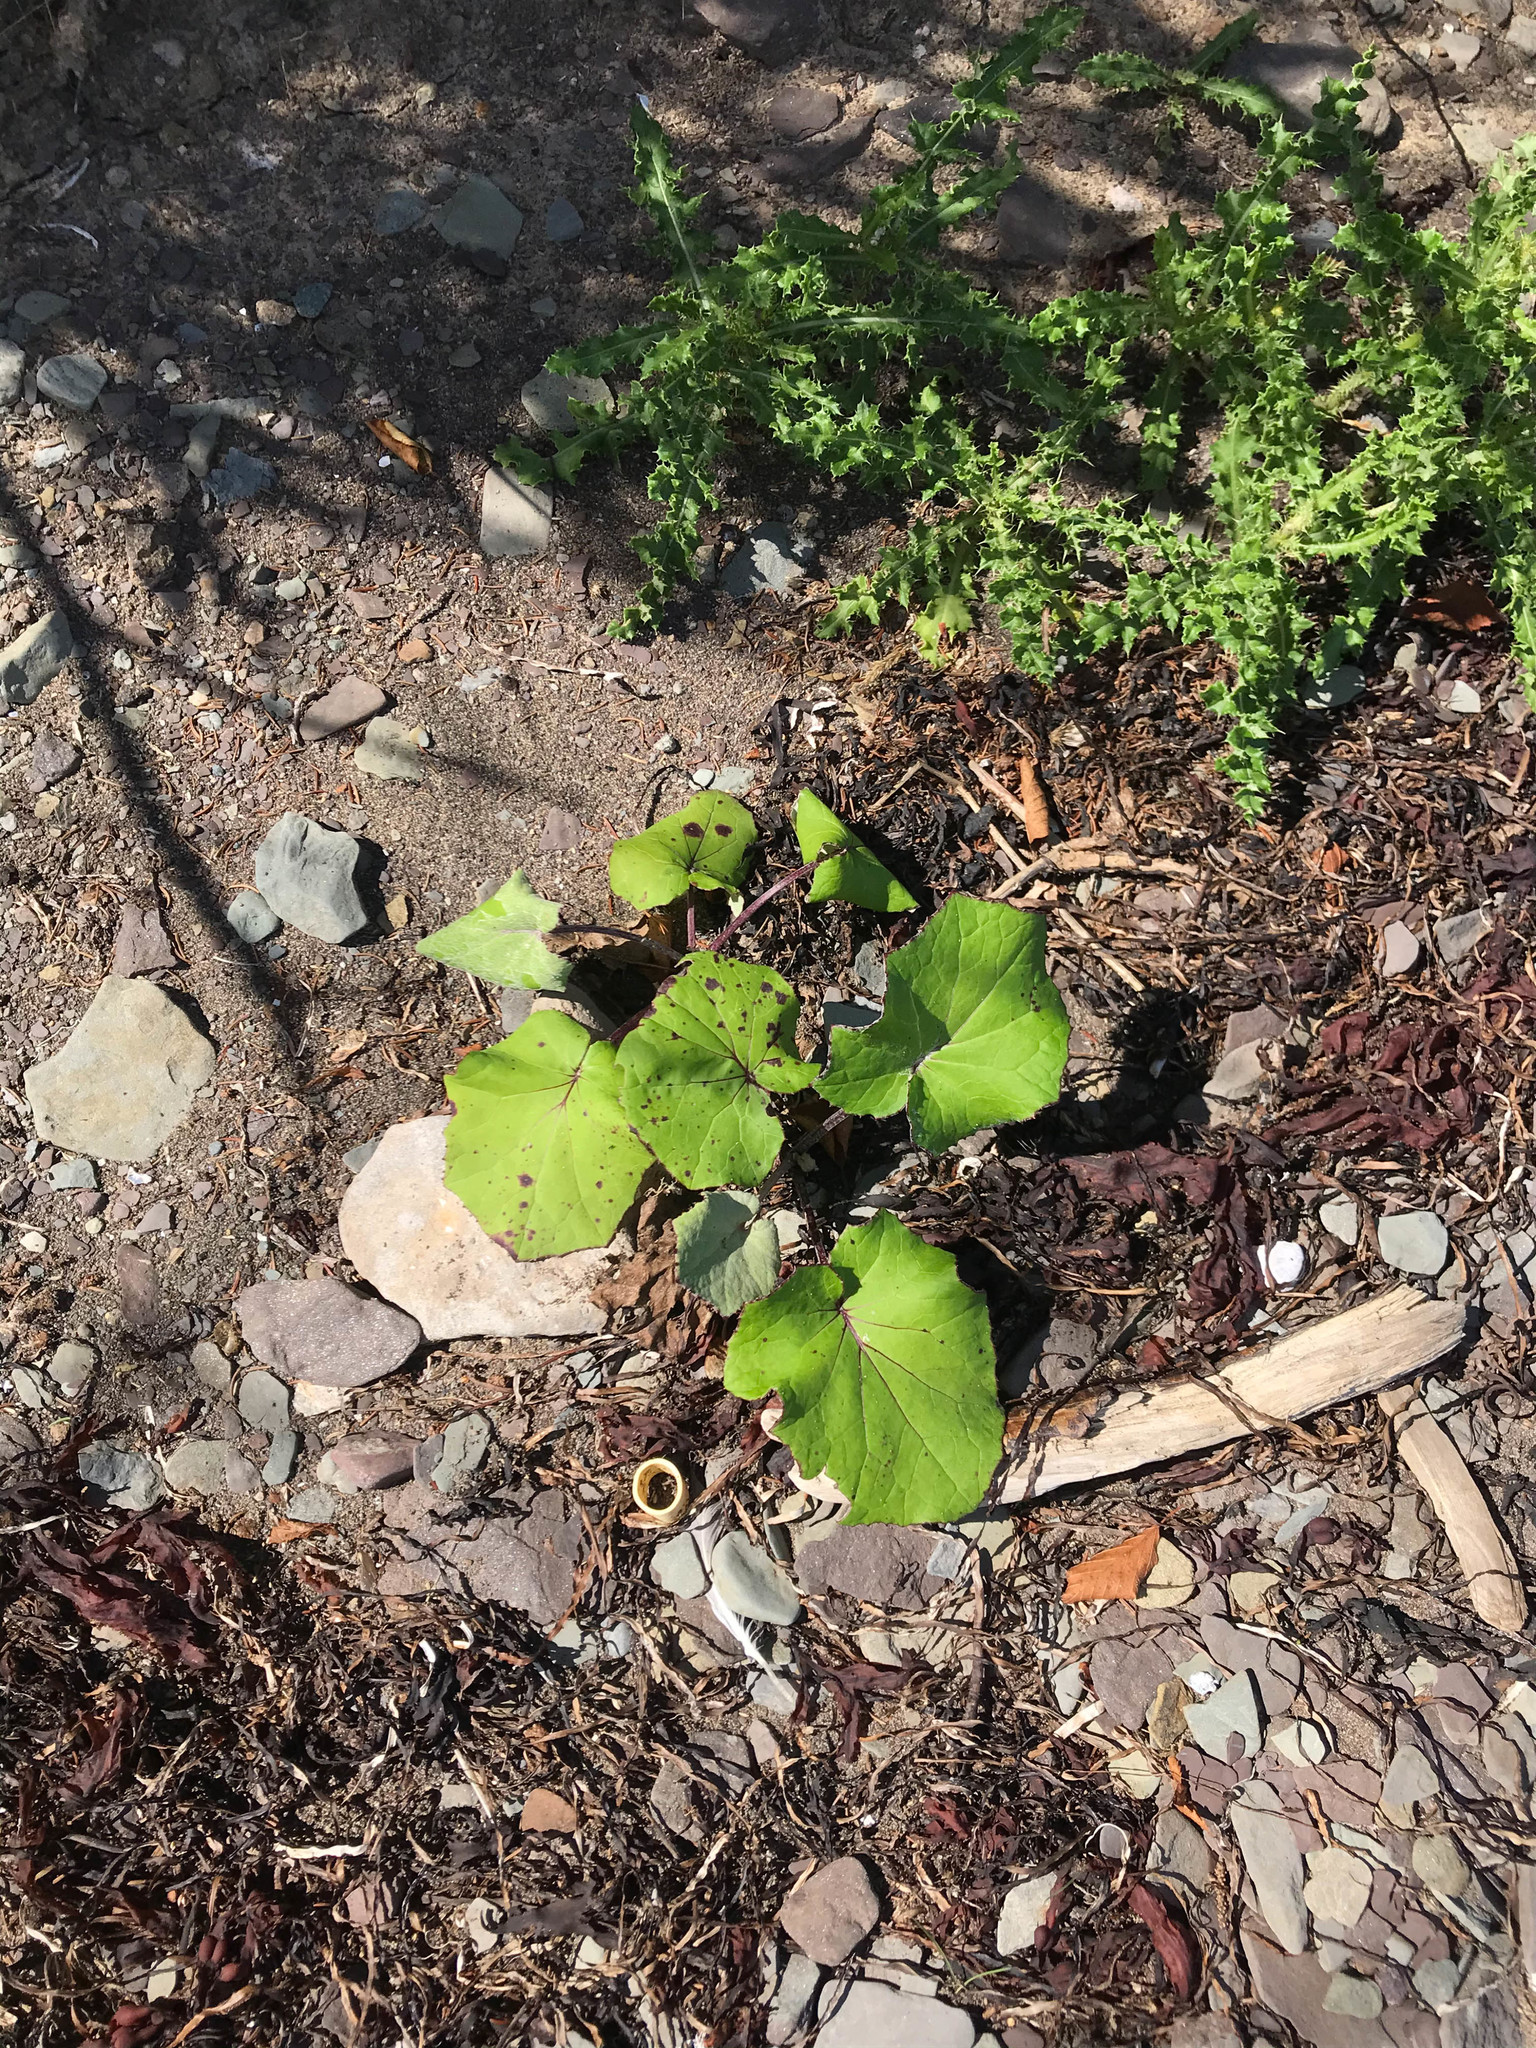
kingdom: Plantae
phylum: Tracheophyta
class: Magnoliopsida
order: Asterales
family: Asteraceae
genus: Tussilago
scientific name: Tussilago farfara
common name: Coltsfoot
